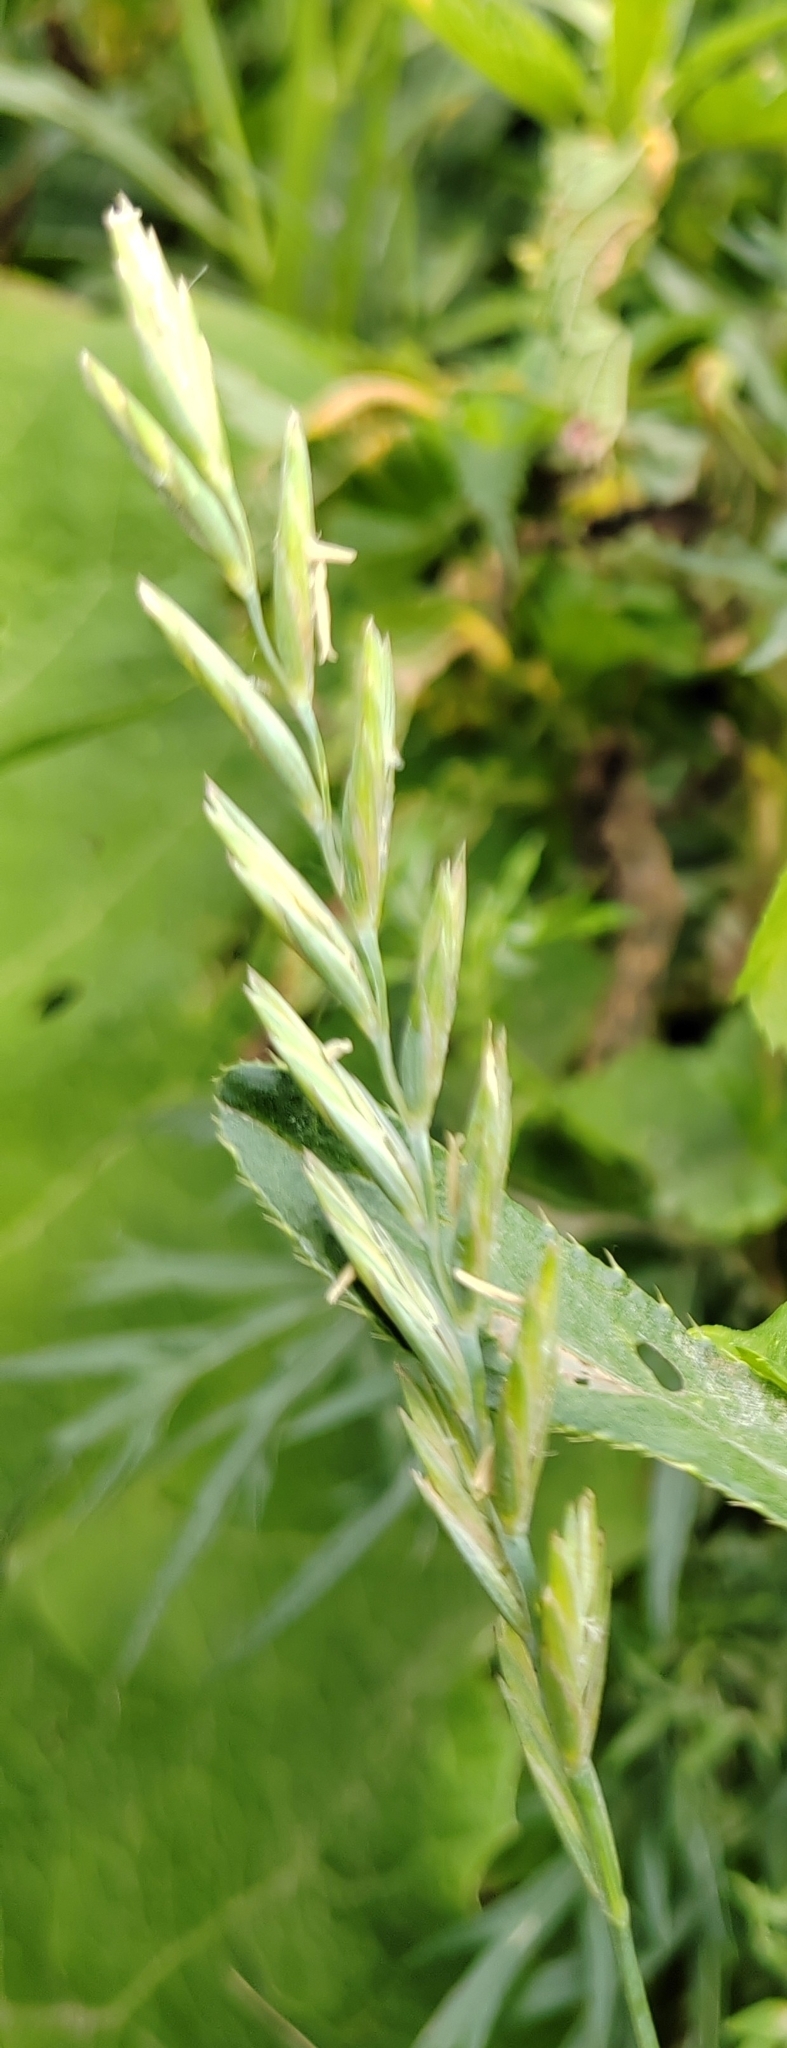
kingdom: Plantae
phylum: Tracheophyta
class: Liliopsida
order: Poales
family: Poaceae
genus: Elymus
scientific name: Elymus repens
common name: Quackgrass
